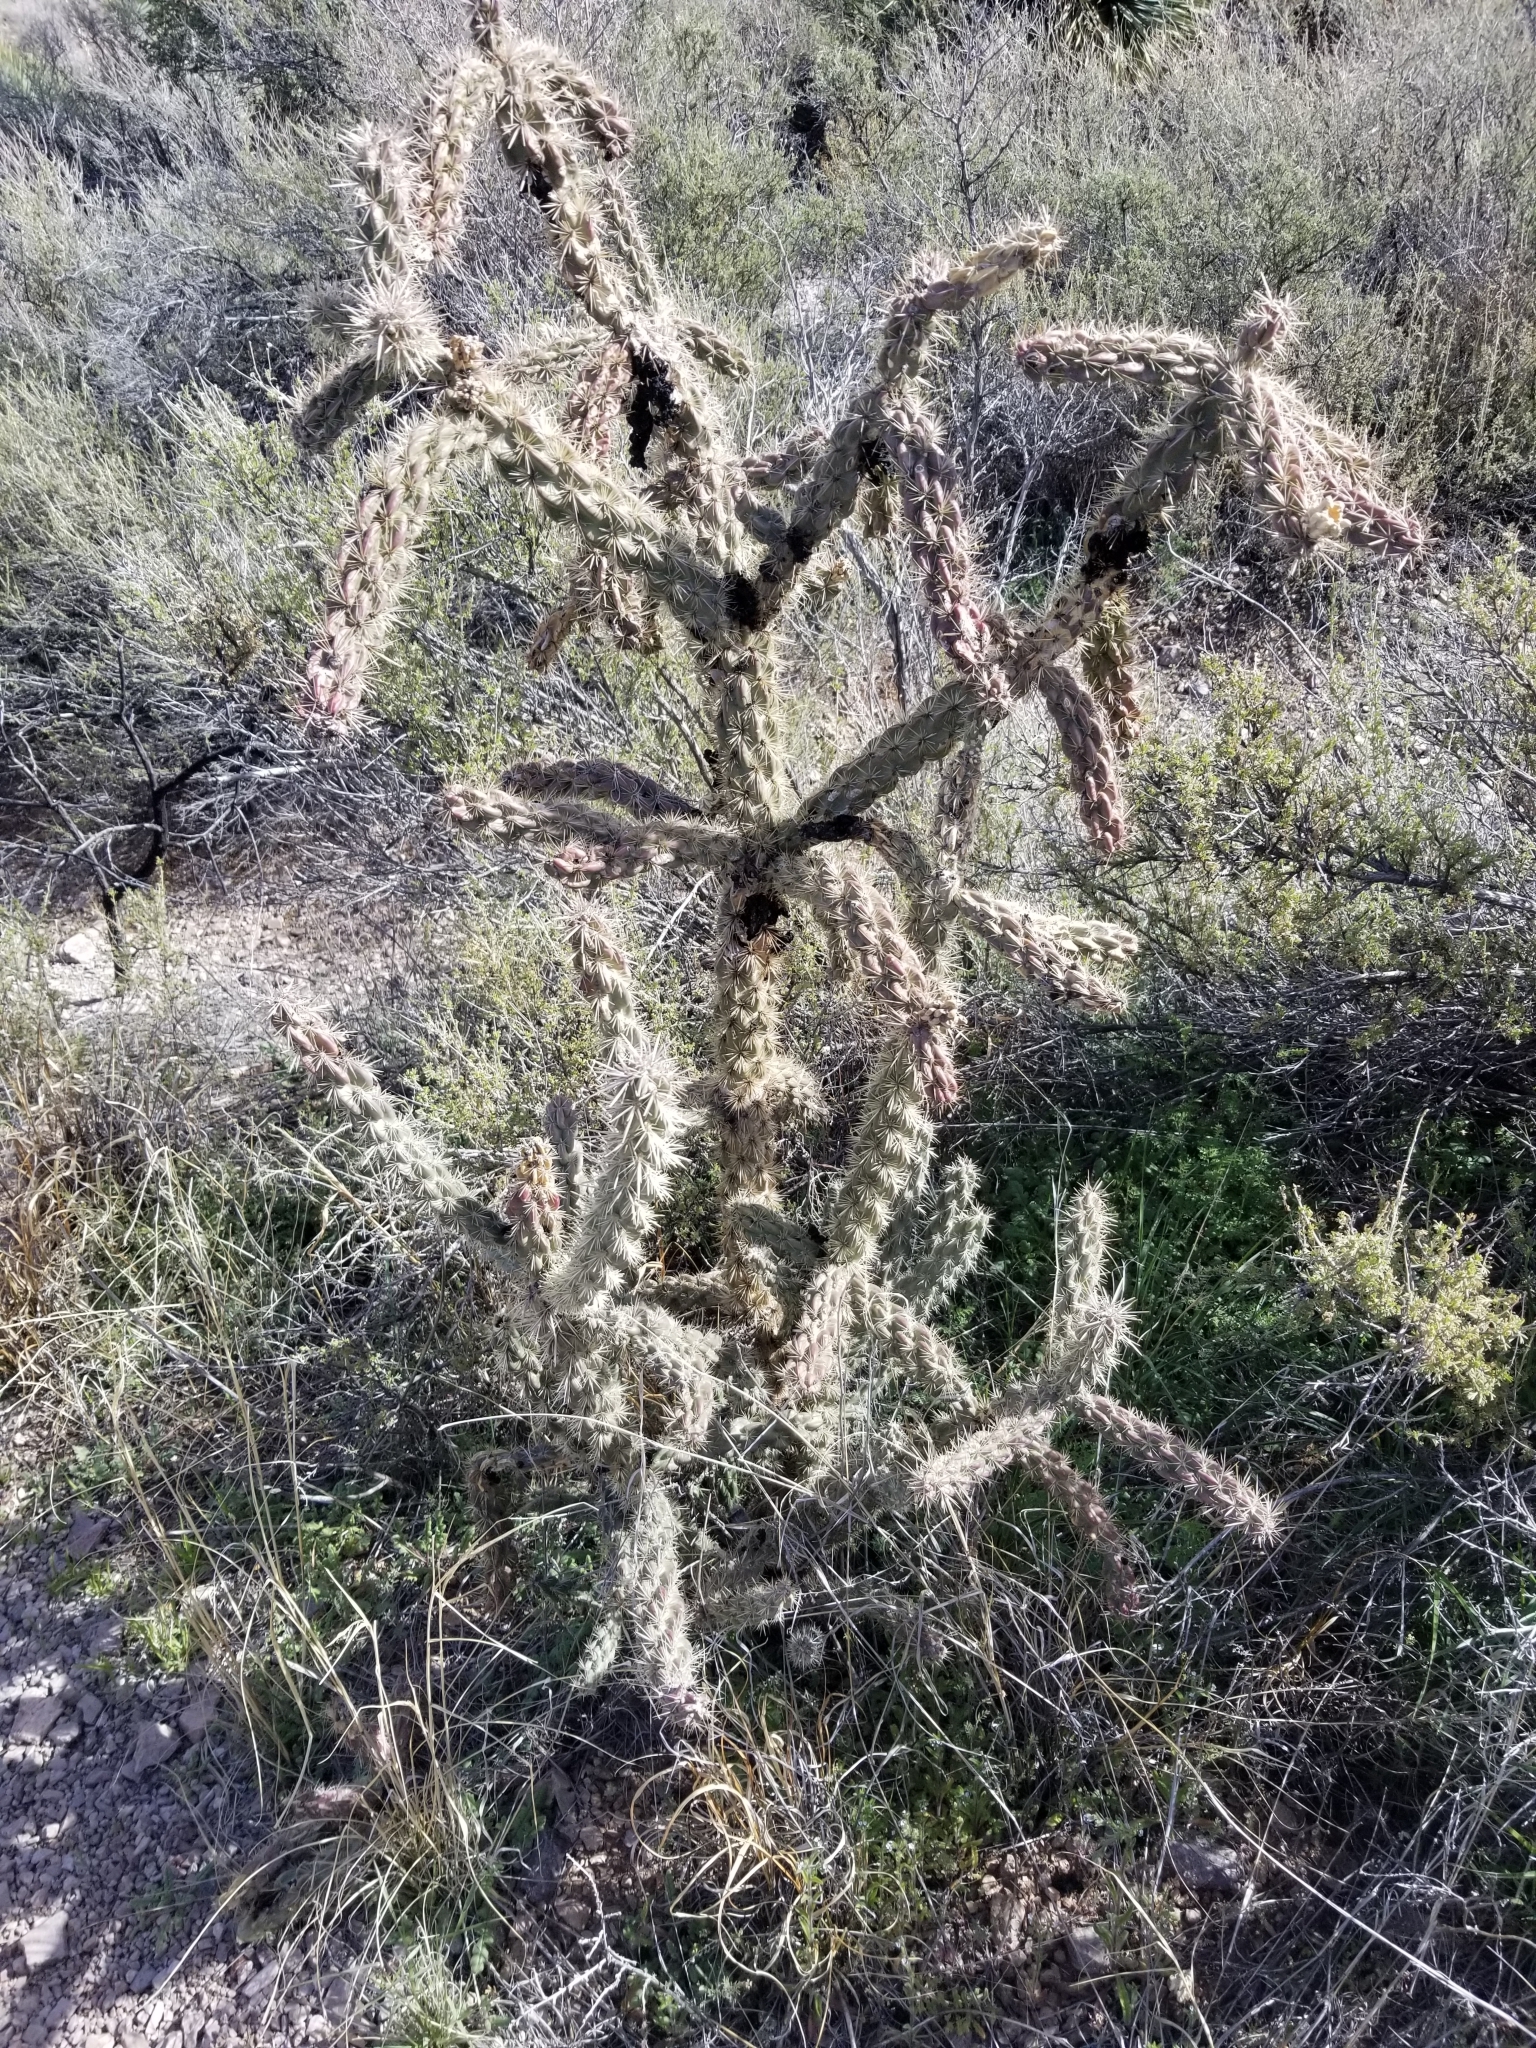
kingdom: Plantae
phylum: Tracheophyta
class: Magnoliopsida
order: Caryophyllales
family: Cactaceae
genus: Cylindropuntia
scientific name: Cylindropuntia imbricata
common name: Candelabrum cactus
